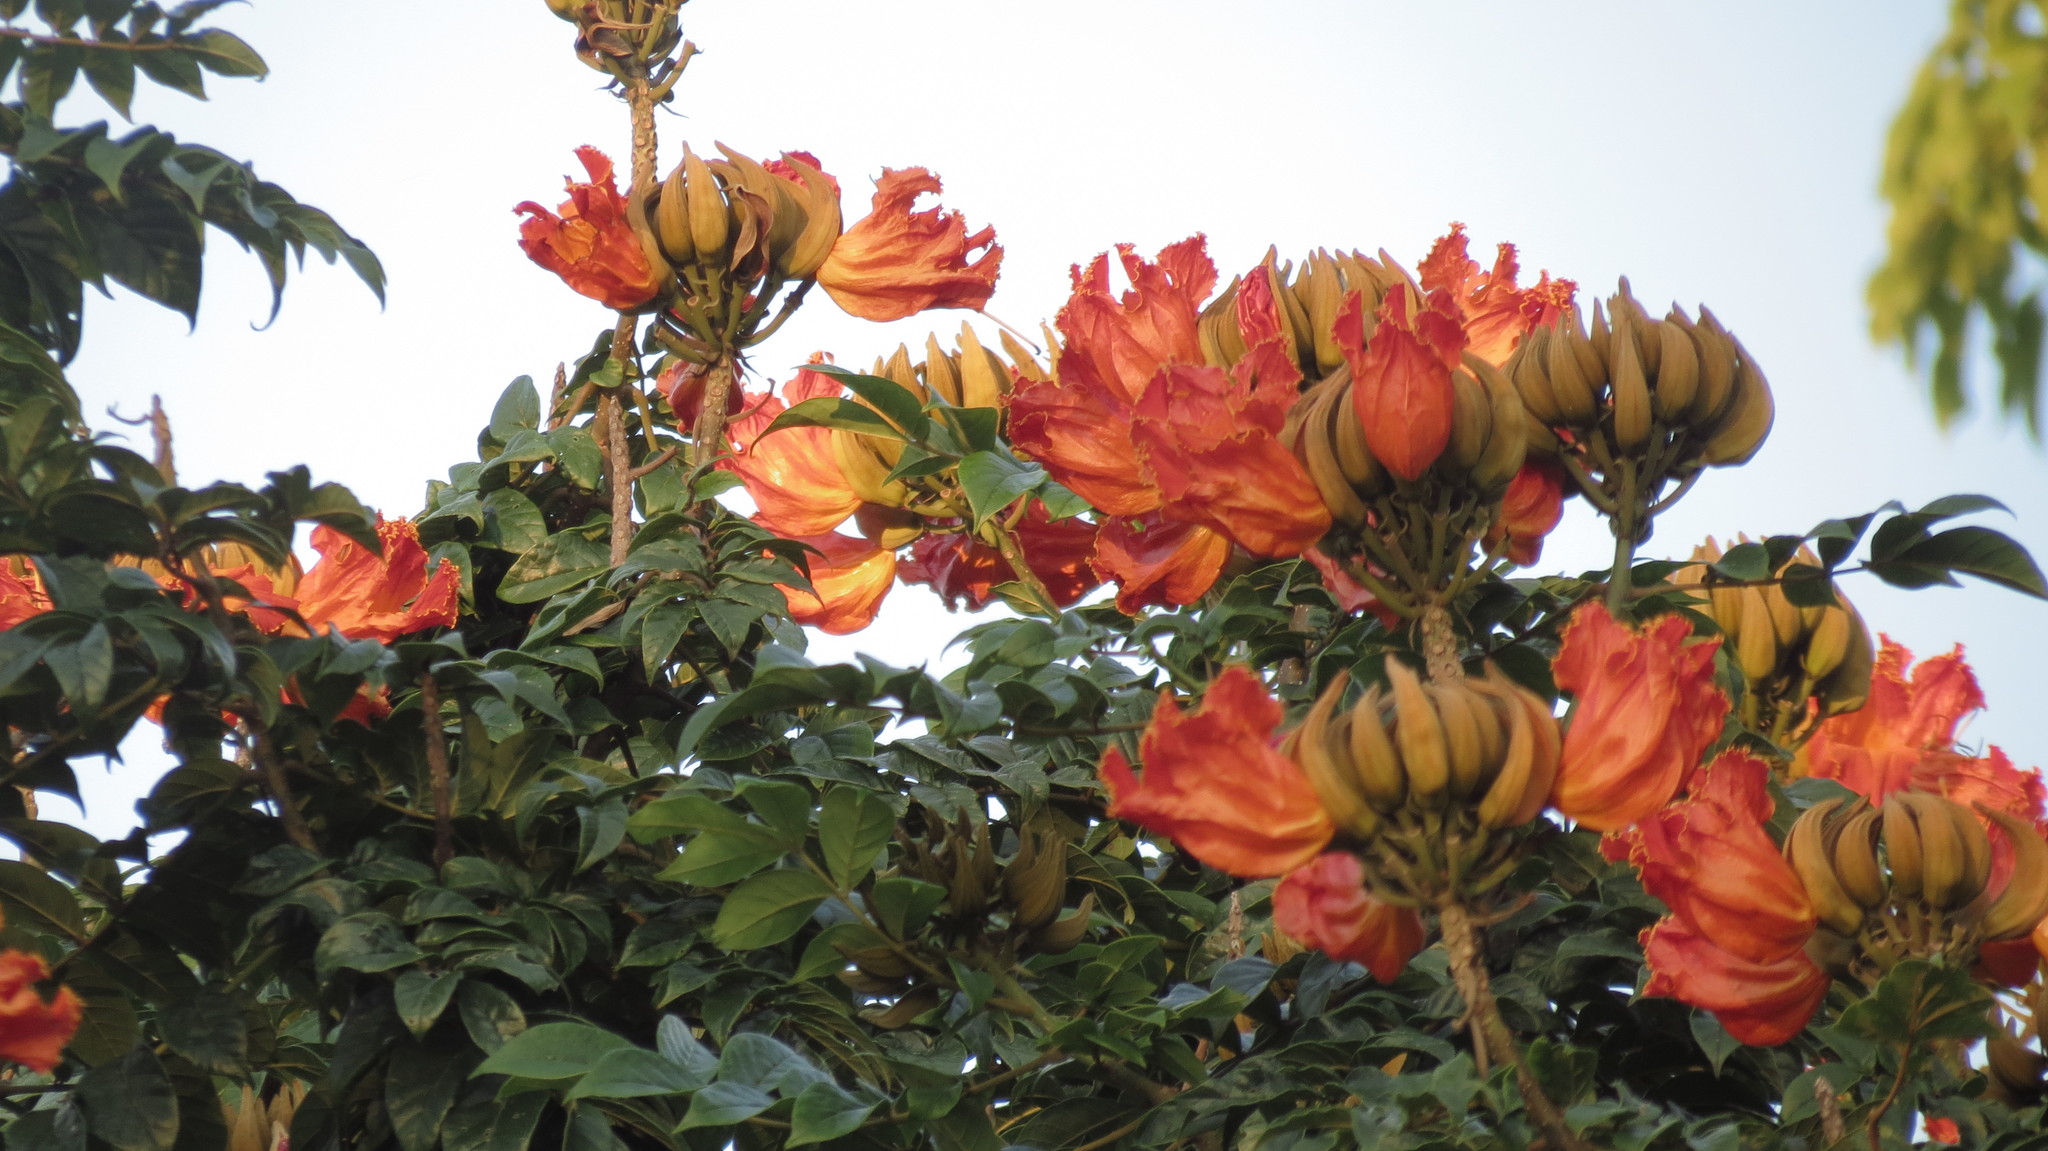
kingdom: Plantae
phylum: Tracheophyta
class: Magnoliopsida
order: Lamiales
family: Bignoniaceae
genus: Spathodea
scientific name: Spathodea campanulata
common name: African tuliptree
